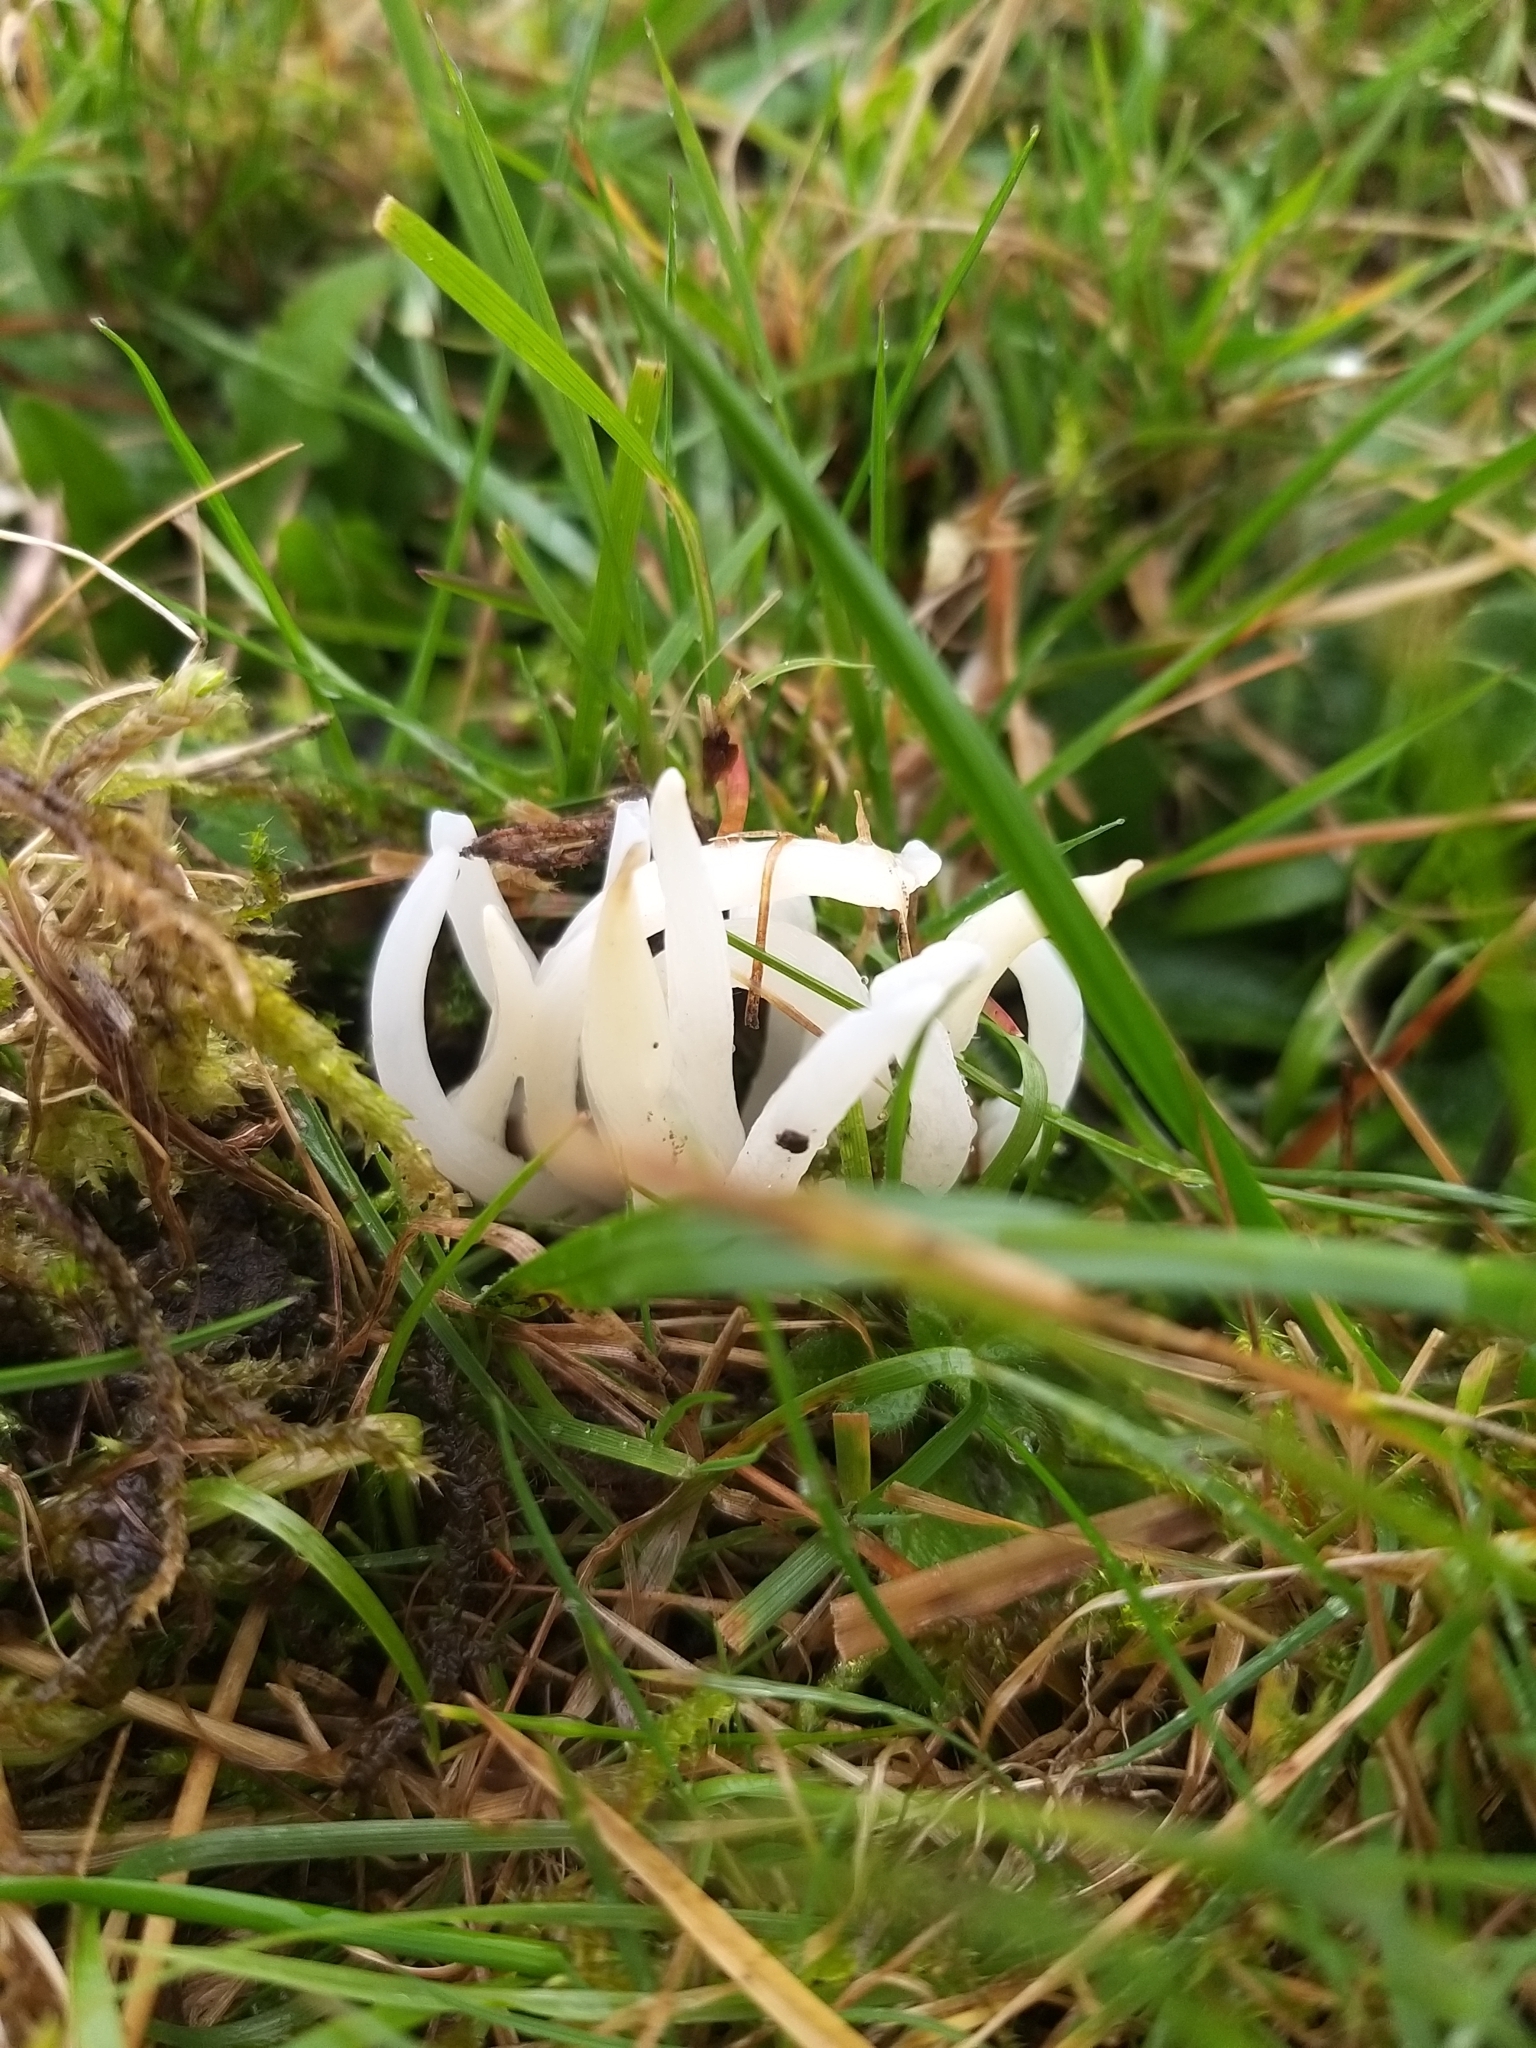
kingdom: Fungi
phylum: Basidiomycota
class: Agaricomycetes
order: Agaricales
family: Clavariaceae
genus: Clavaria
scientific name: Clavaria fragilis
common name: White spindles
